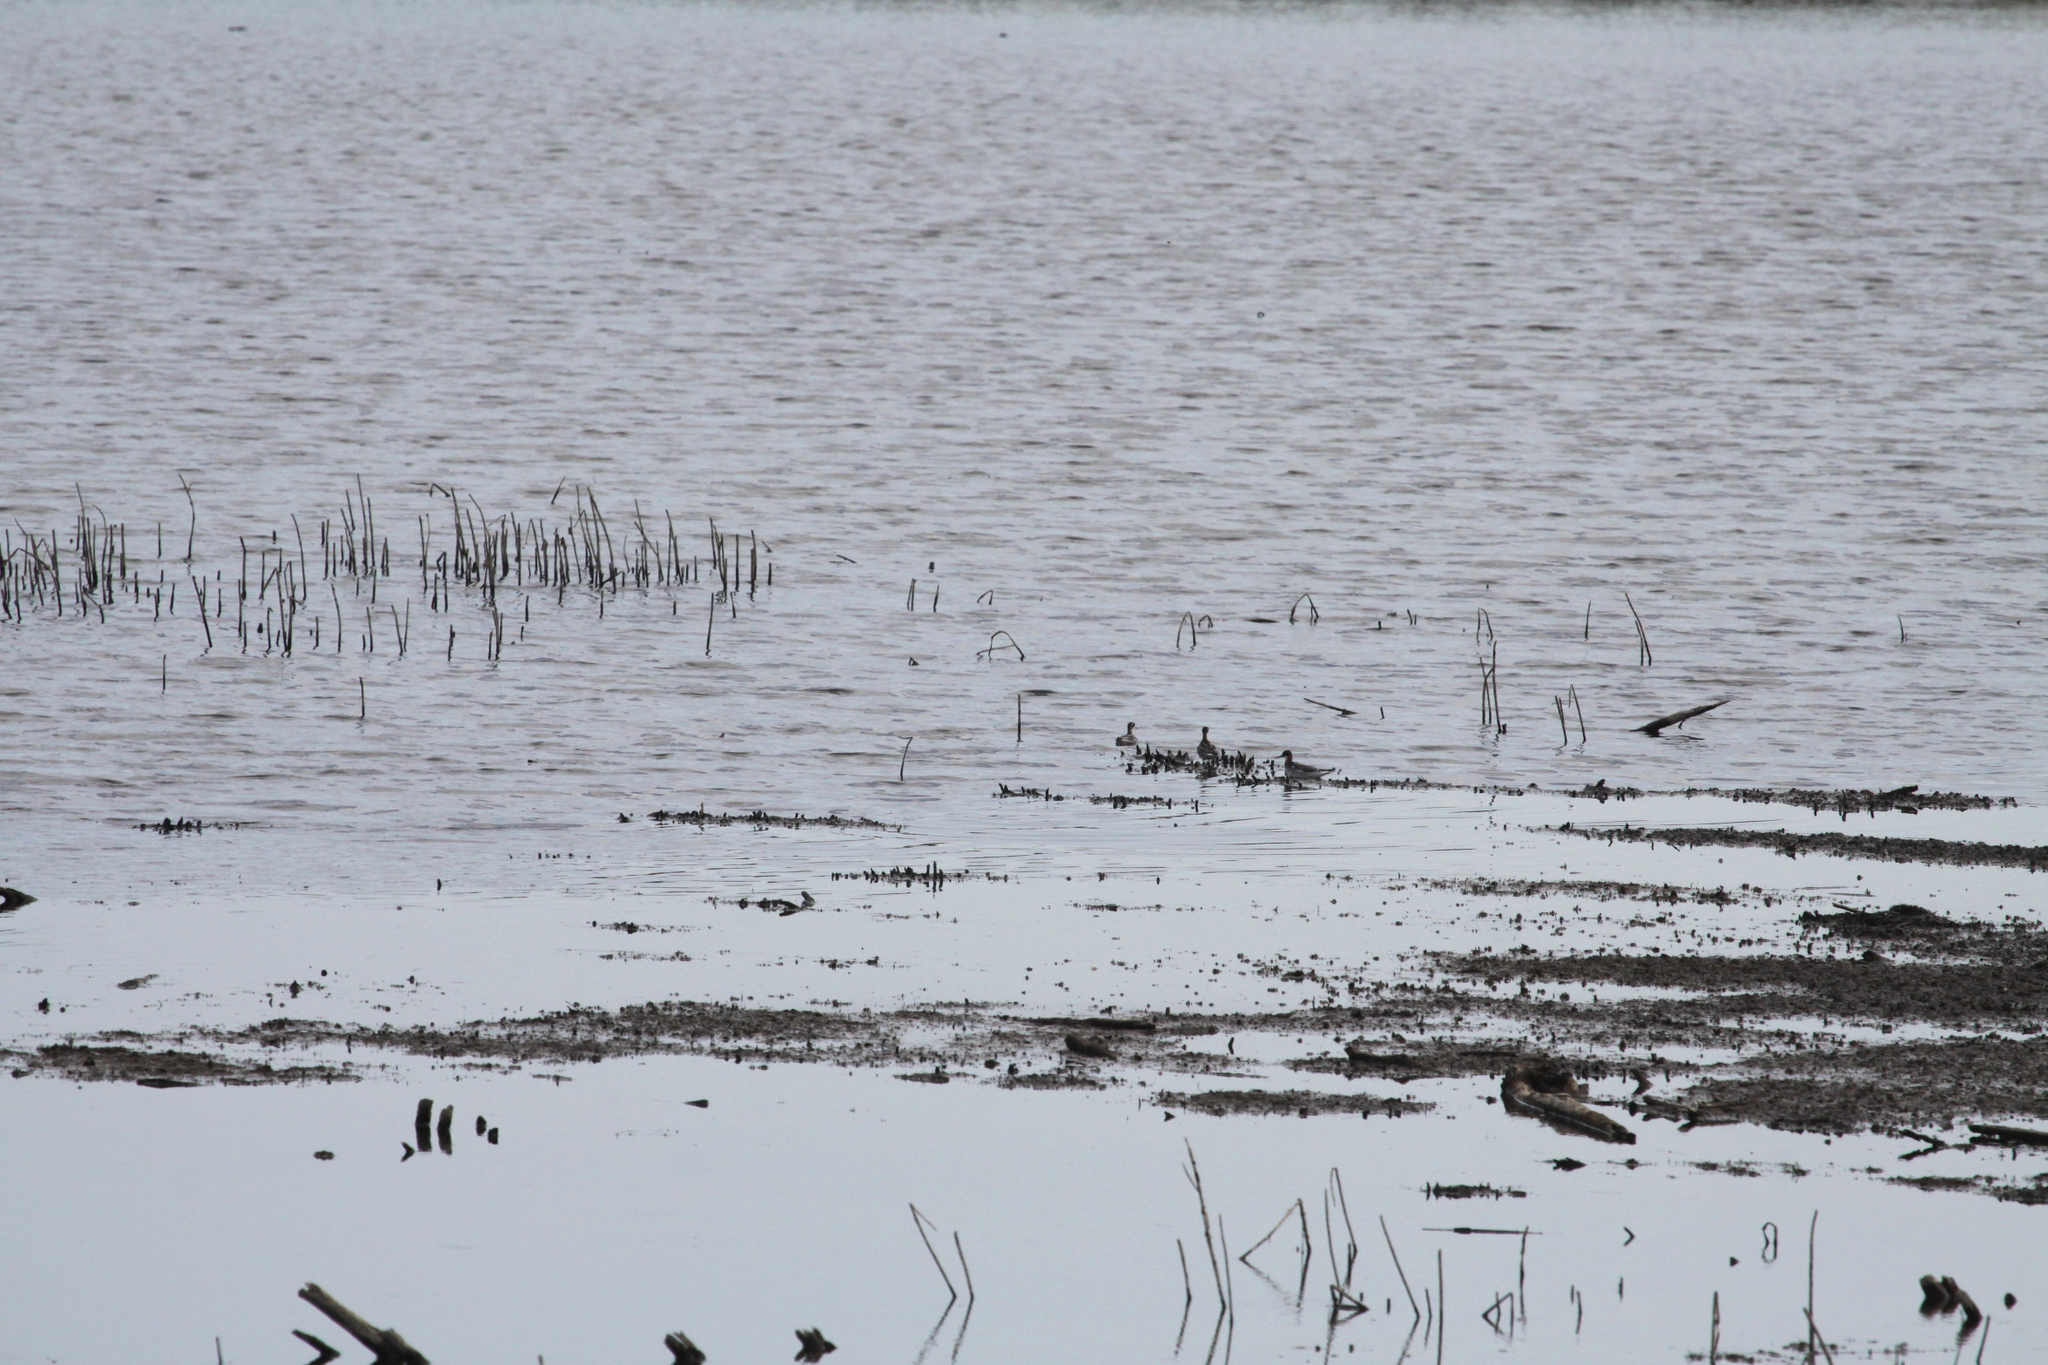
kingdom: Animalia
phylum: Chordata
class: Aves
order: Charadriiformes
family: Scolopacidae
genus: Phalaropus
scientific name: Phalaropus lobatus
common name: Red-necked phalarope
